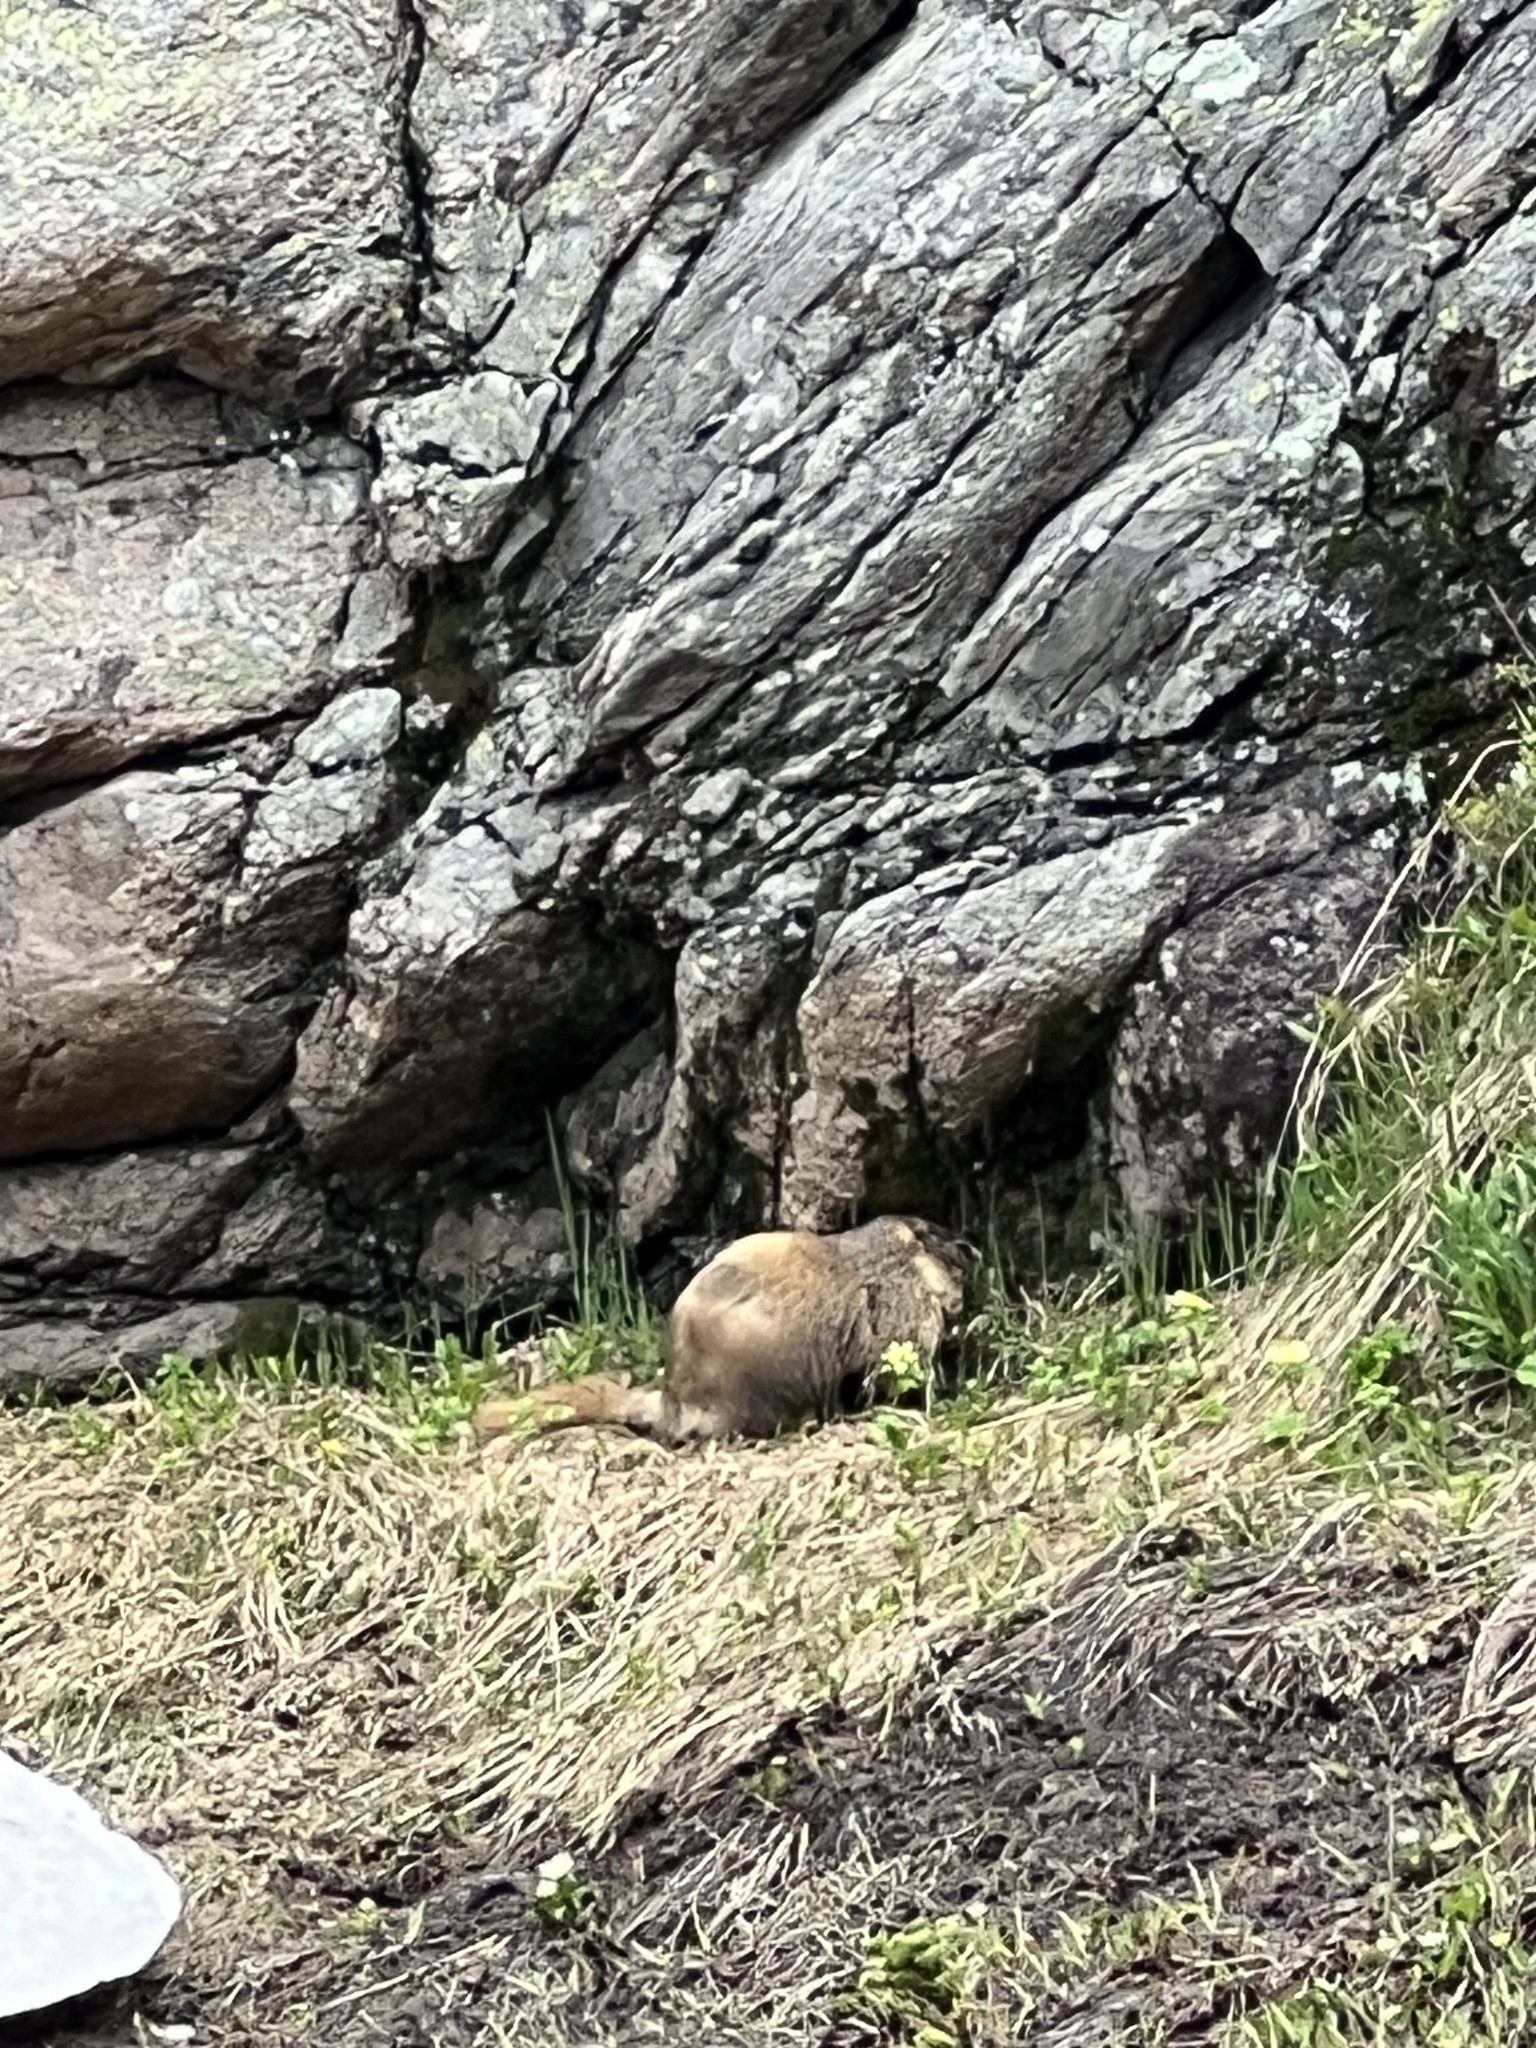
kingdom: Animalia
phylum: Chordata
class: Mammalia
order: Rodentia
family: Sciuridae
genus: Marmota
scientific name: Marmota flaviventris
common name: Yellow-bellied marmot
